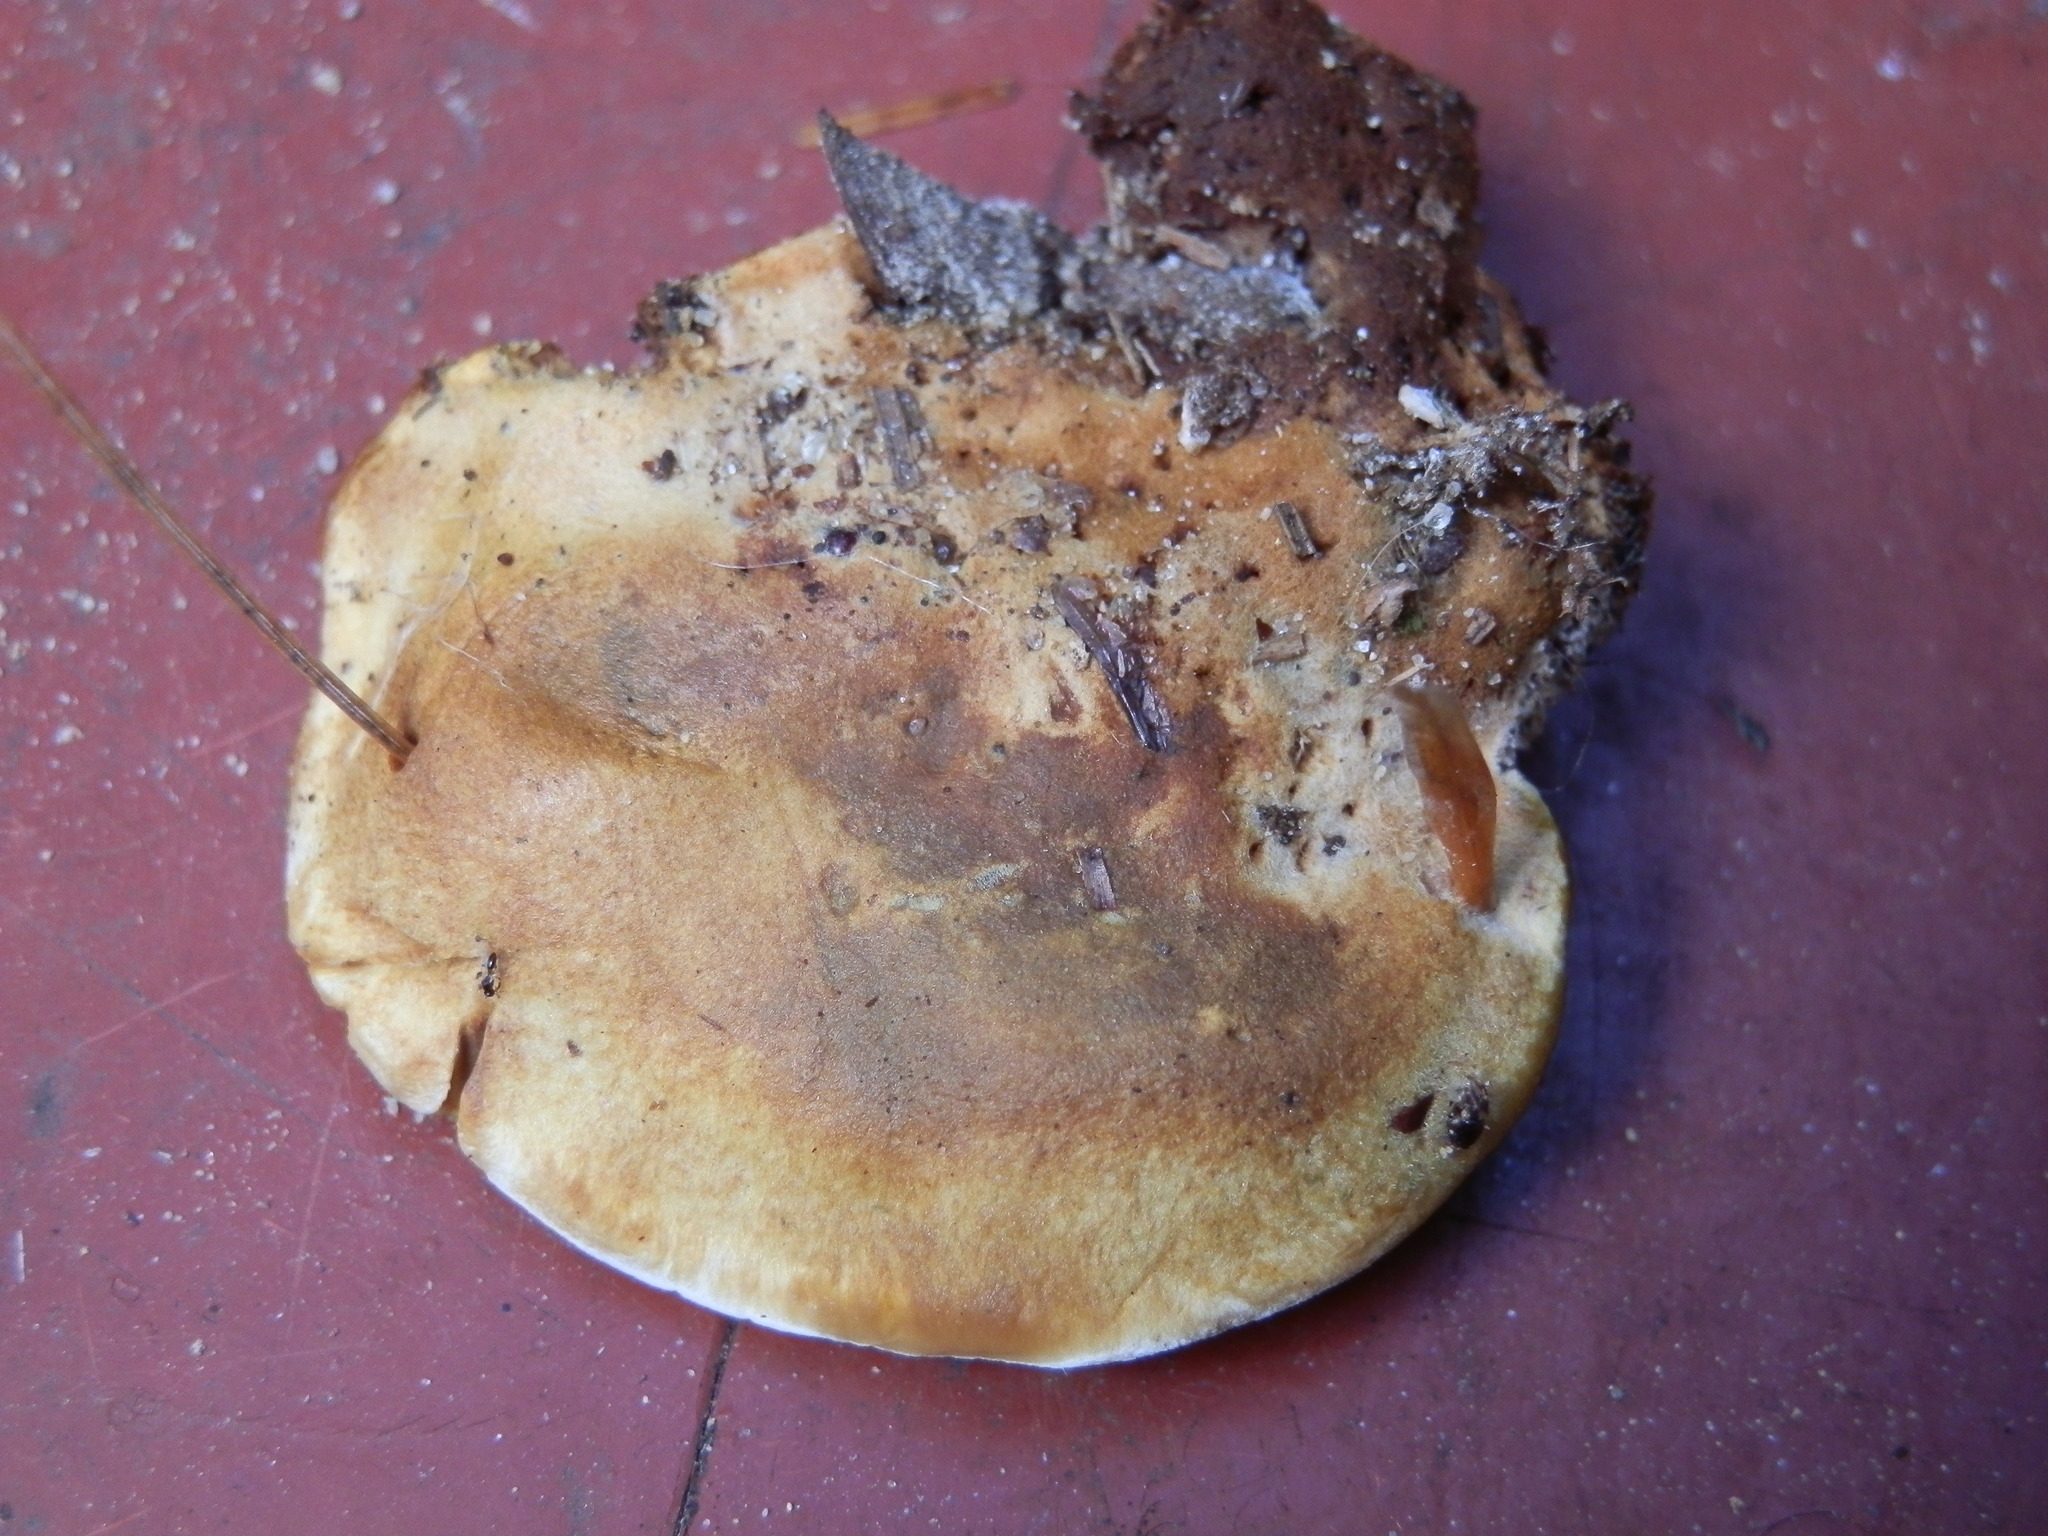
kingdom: Fungi
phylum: Basidiomycota
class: Agaricomycetes
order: Hymenochaetales
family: Hymenochaetaceae
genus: Inonotus
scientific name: Inonotus leporinus
